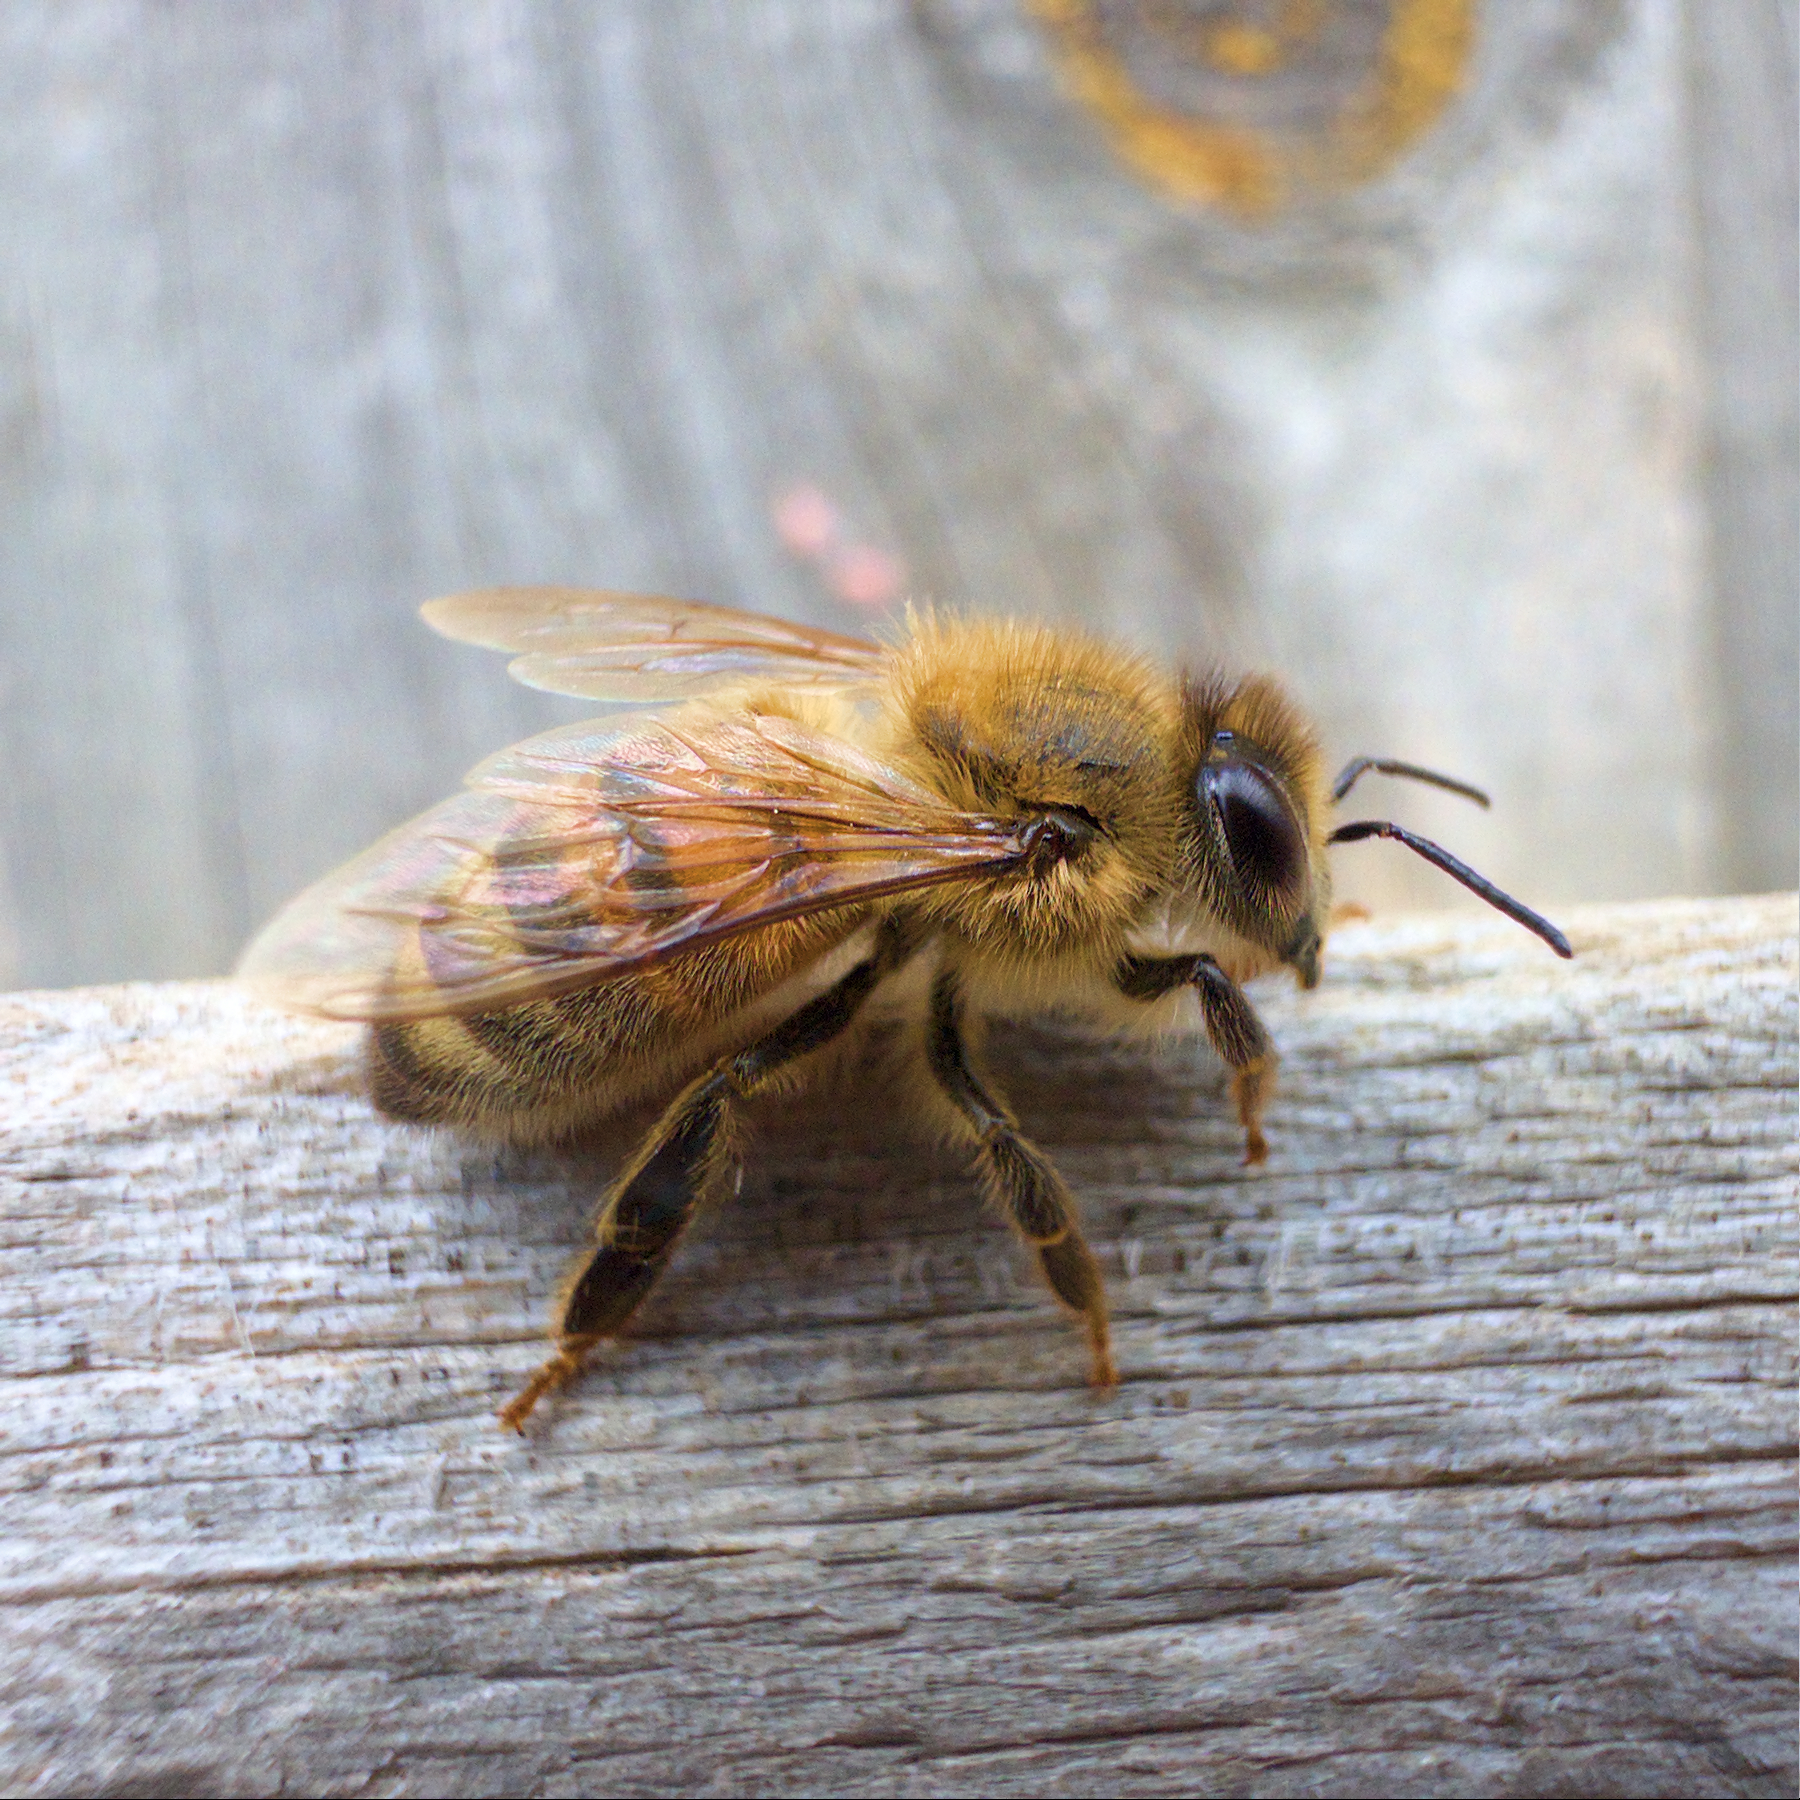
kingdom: Animalia
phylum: Arthropoda
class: Insecta
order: Hymenoptera
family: Apidae
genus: Apis
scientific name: Apis mellifera
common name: Honey bee
